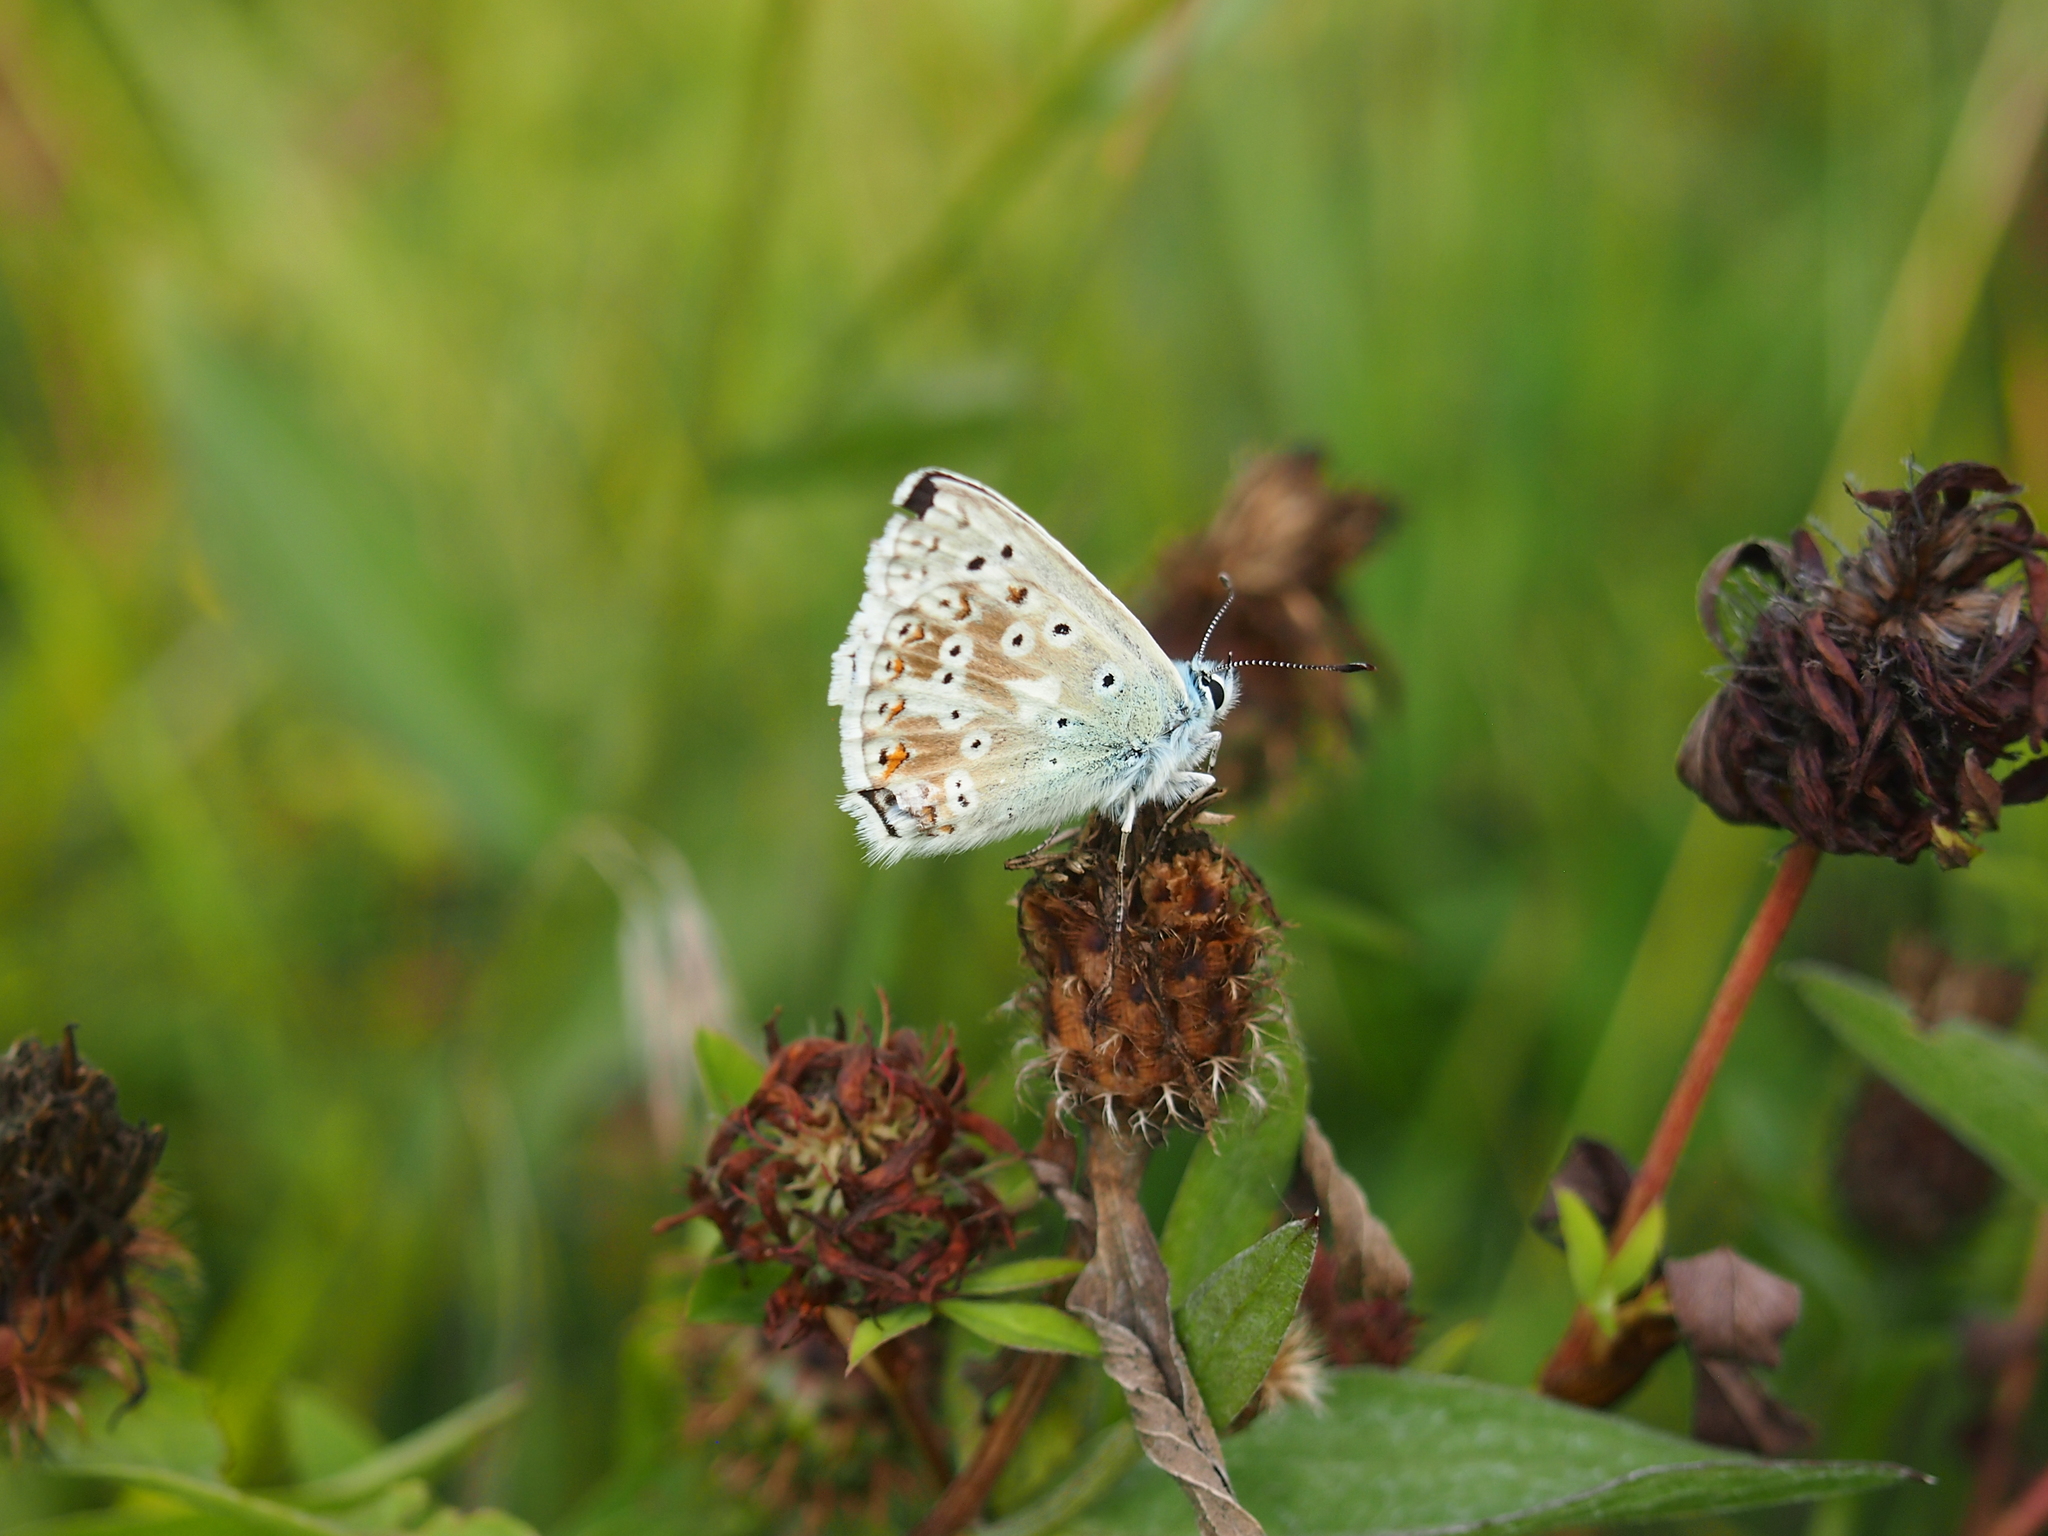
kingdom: Animalia
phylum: Arthropoda
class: Insecta
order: Lepidoptera
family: Lycaenidae
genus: Lysandra
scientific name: Lysandra coridon
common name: Chalkhill blue
